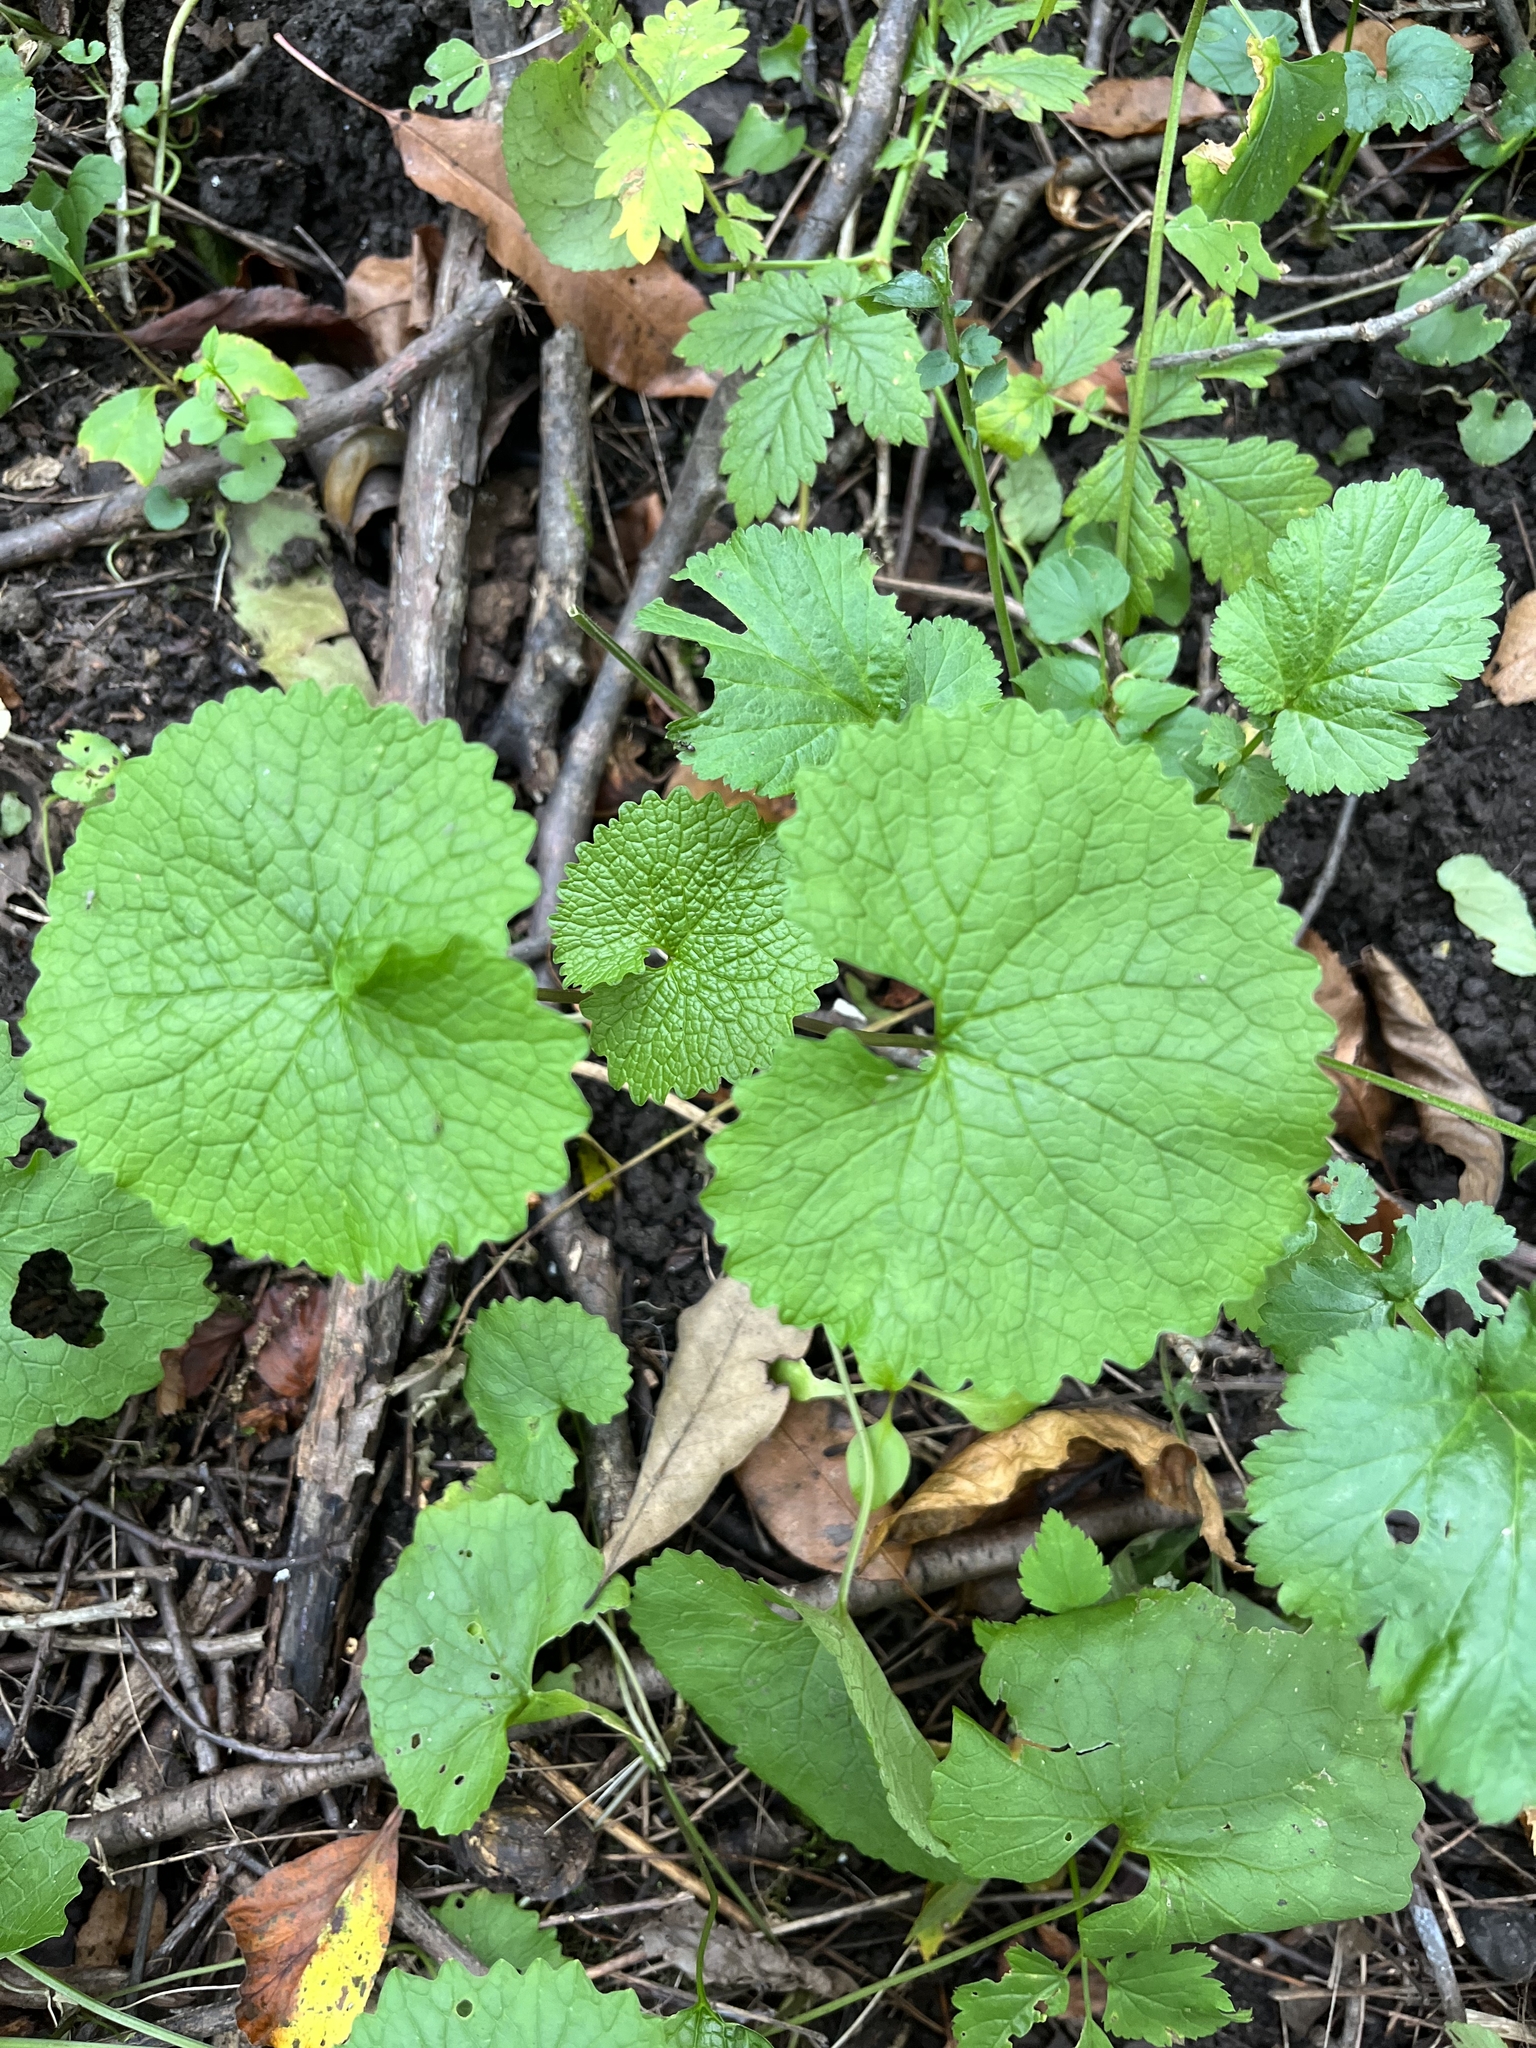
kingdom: Plantae
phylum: Tracheophyta
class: Magnoliopsida
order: Brassicales
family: Brassicaceae
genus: Alliaria
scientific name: Alliaria petiolata
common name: Garlic mustard
